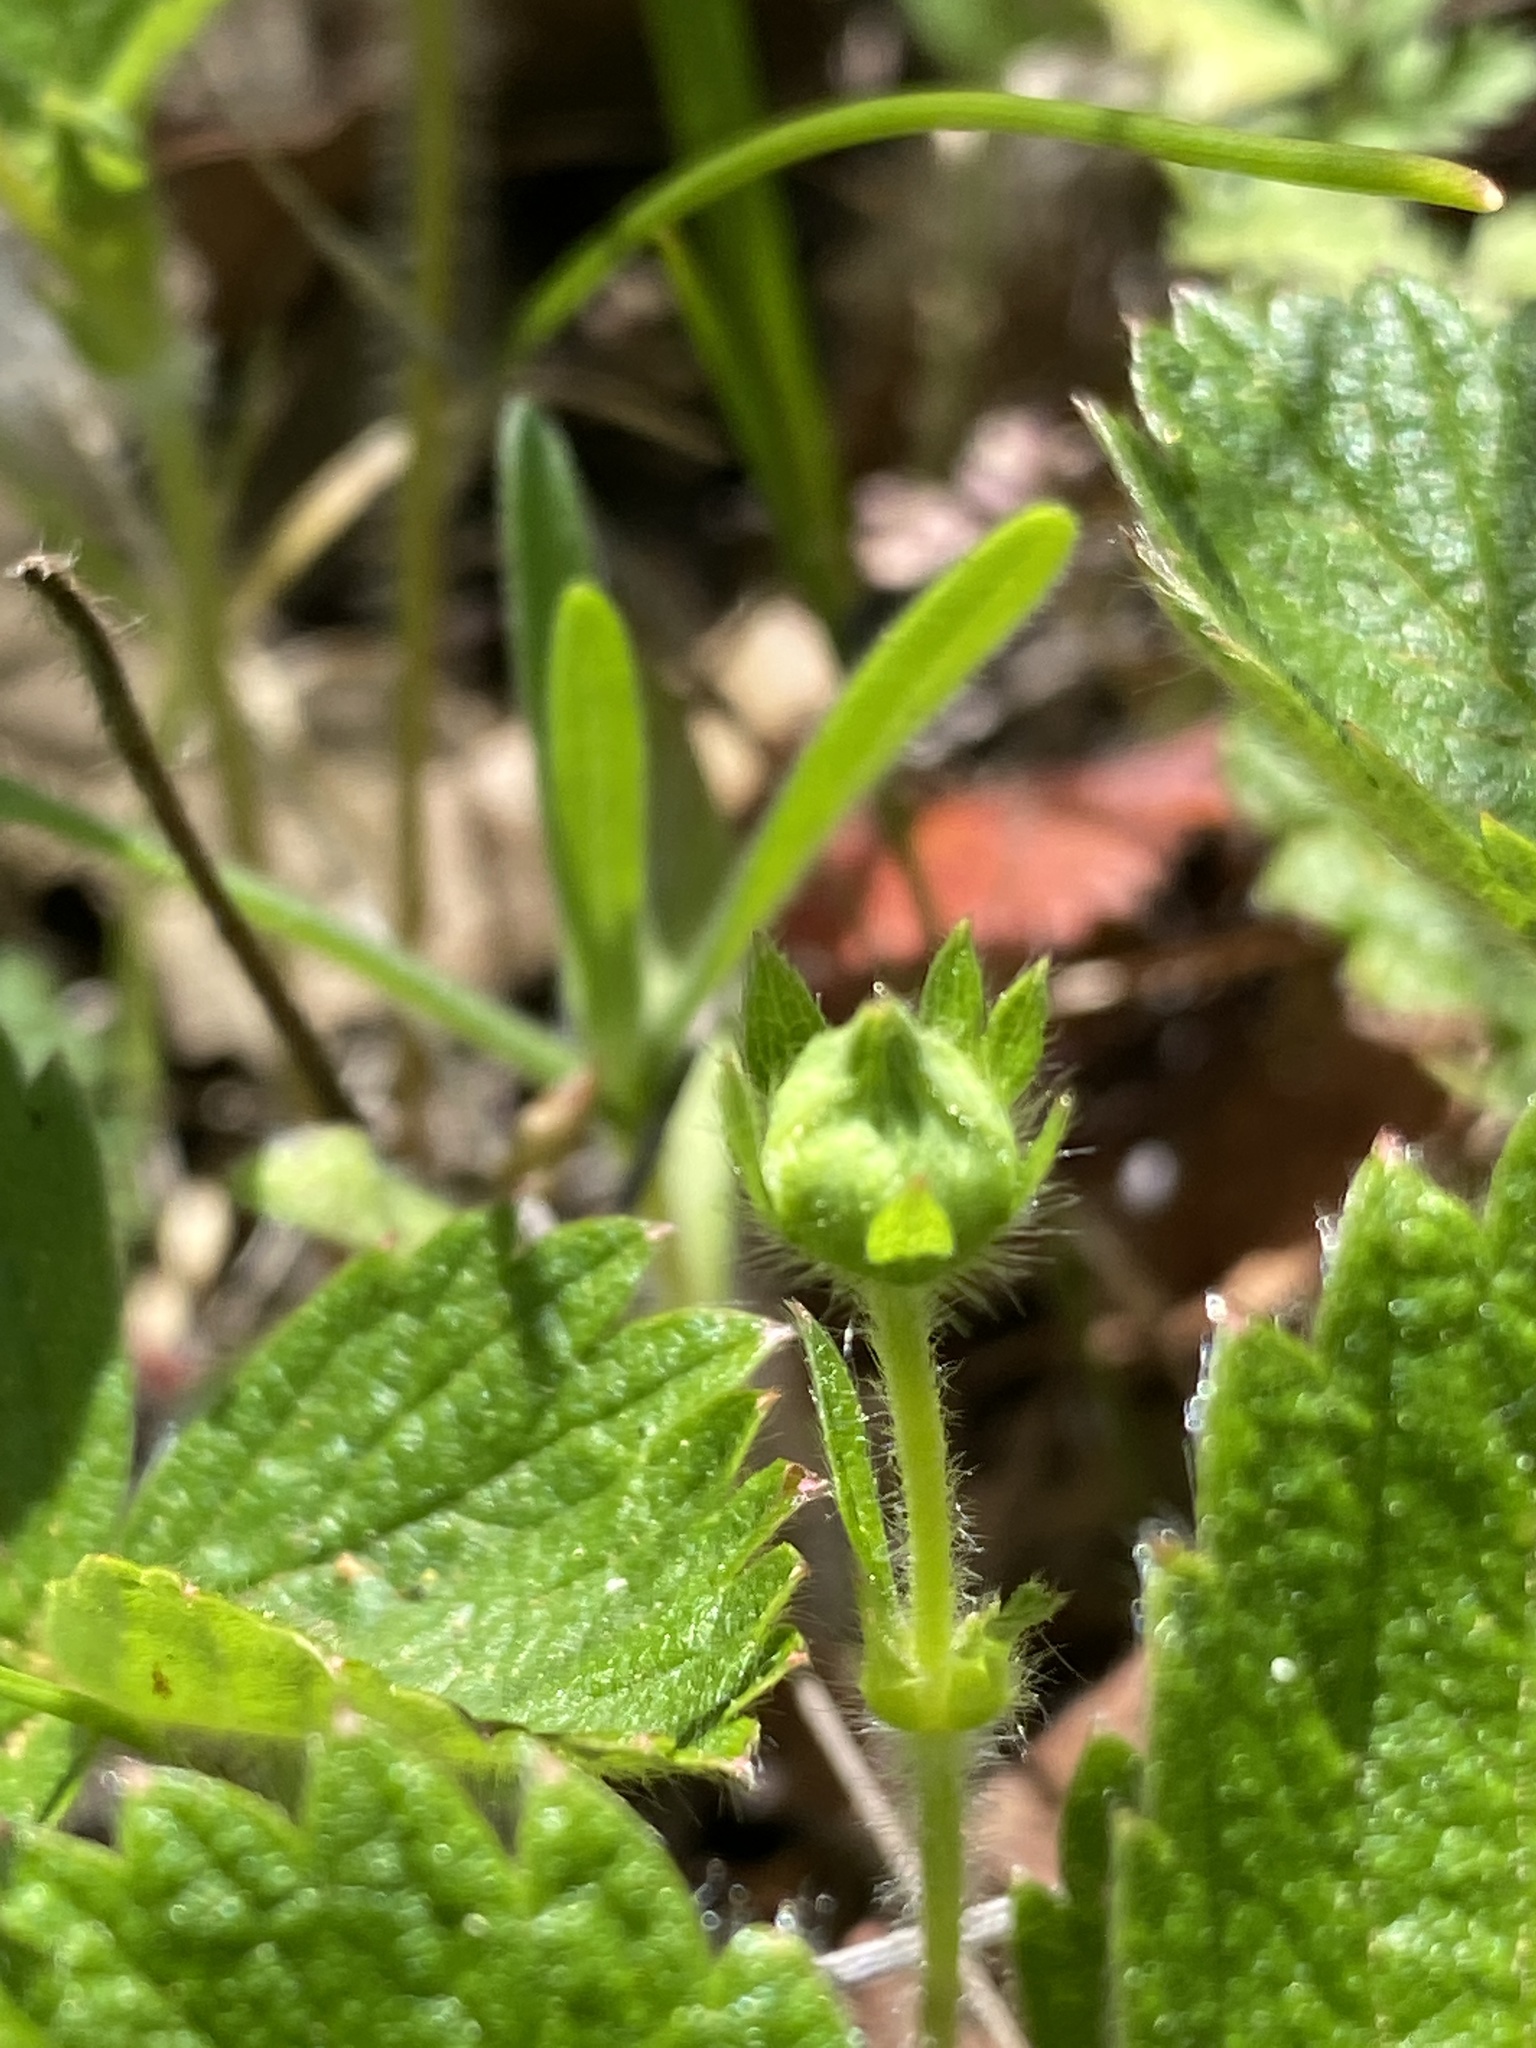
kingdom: Plantae
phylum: Tracheophyta
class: Magnoliopsida
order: Rosales
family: Rosaceae
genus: Fragaria
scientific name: Fragaria vesca
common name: Wild strawberry
